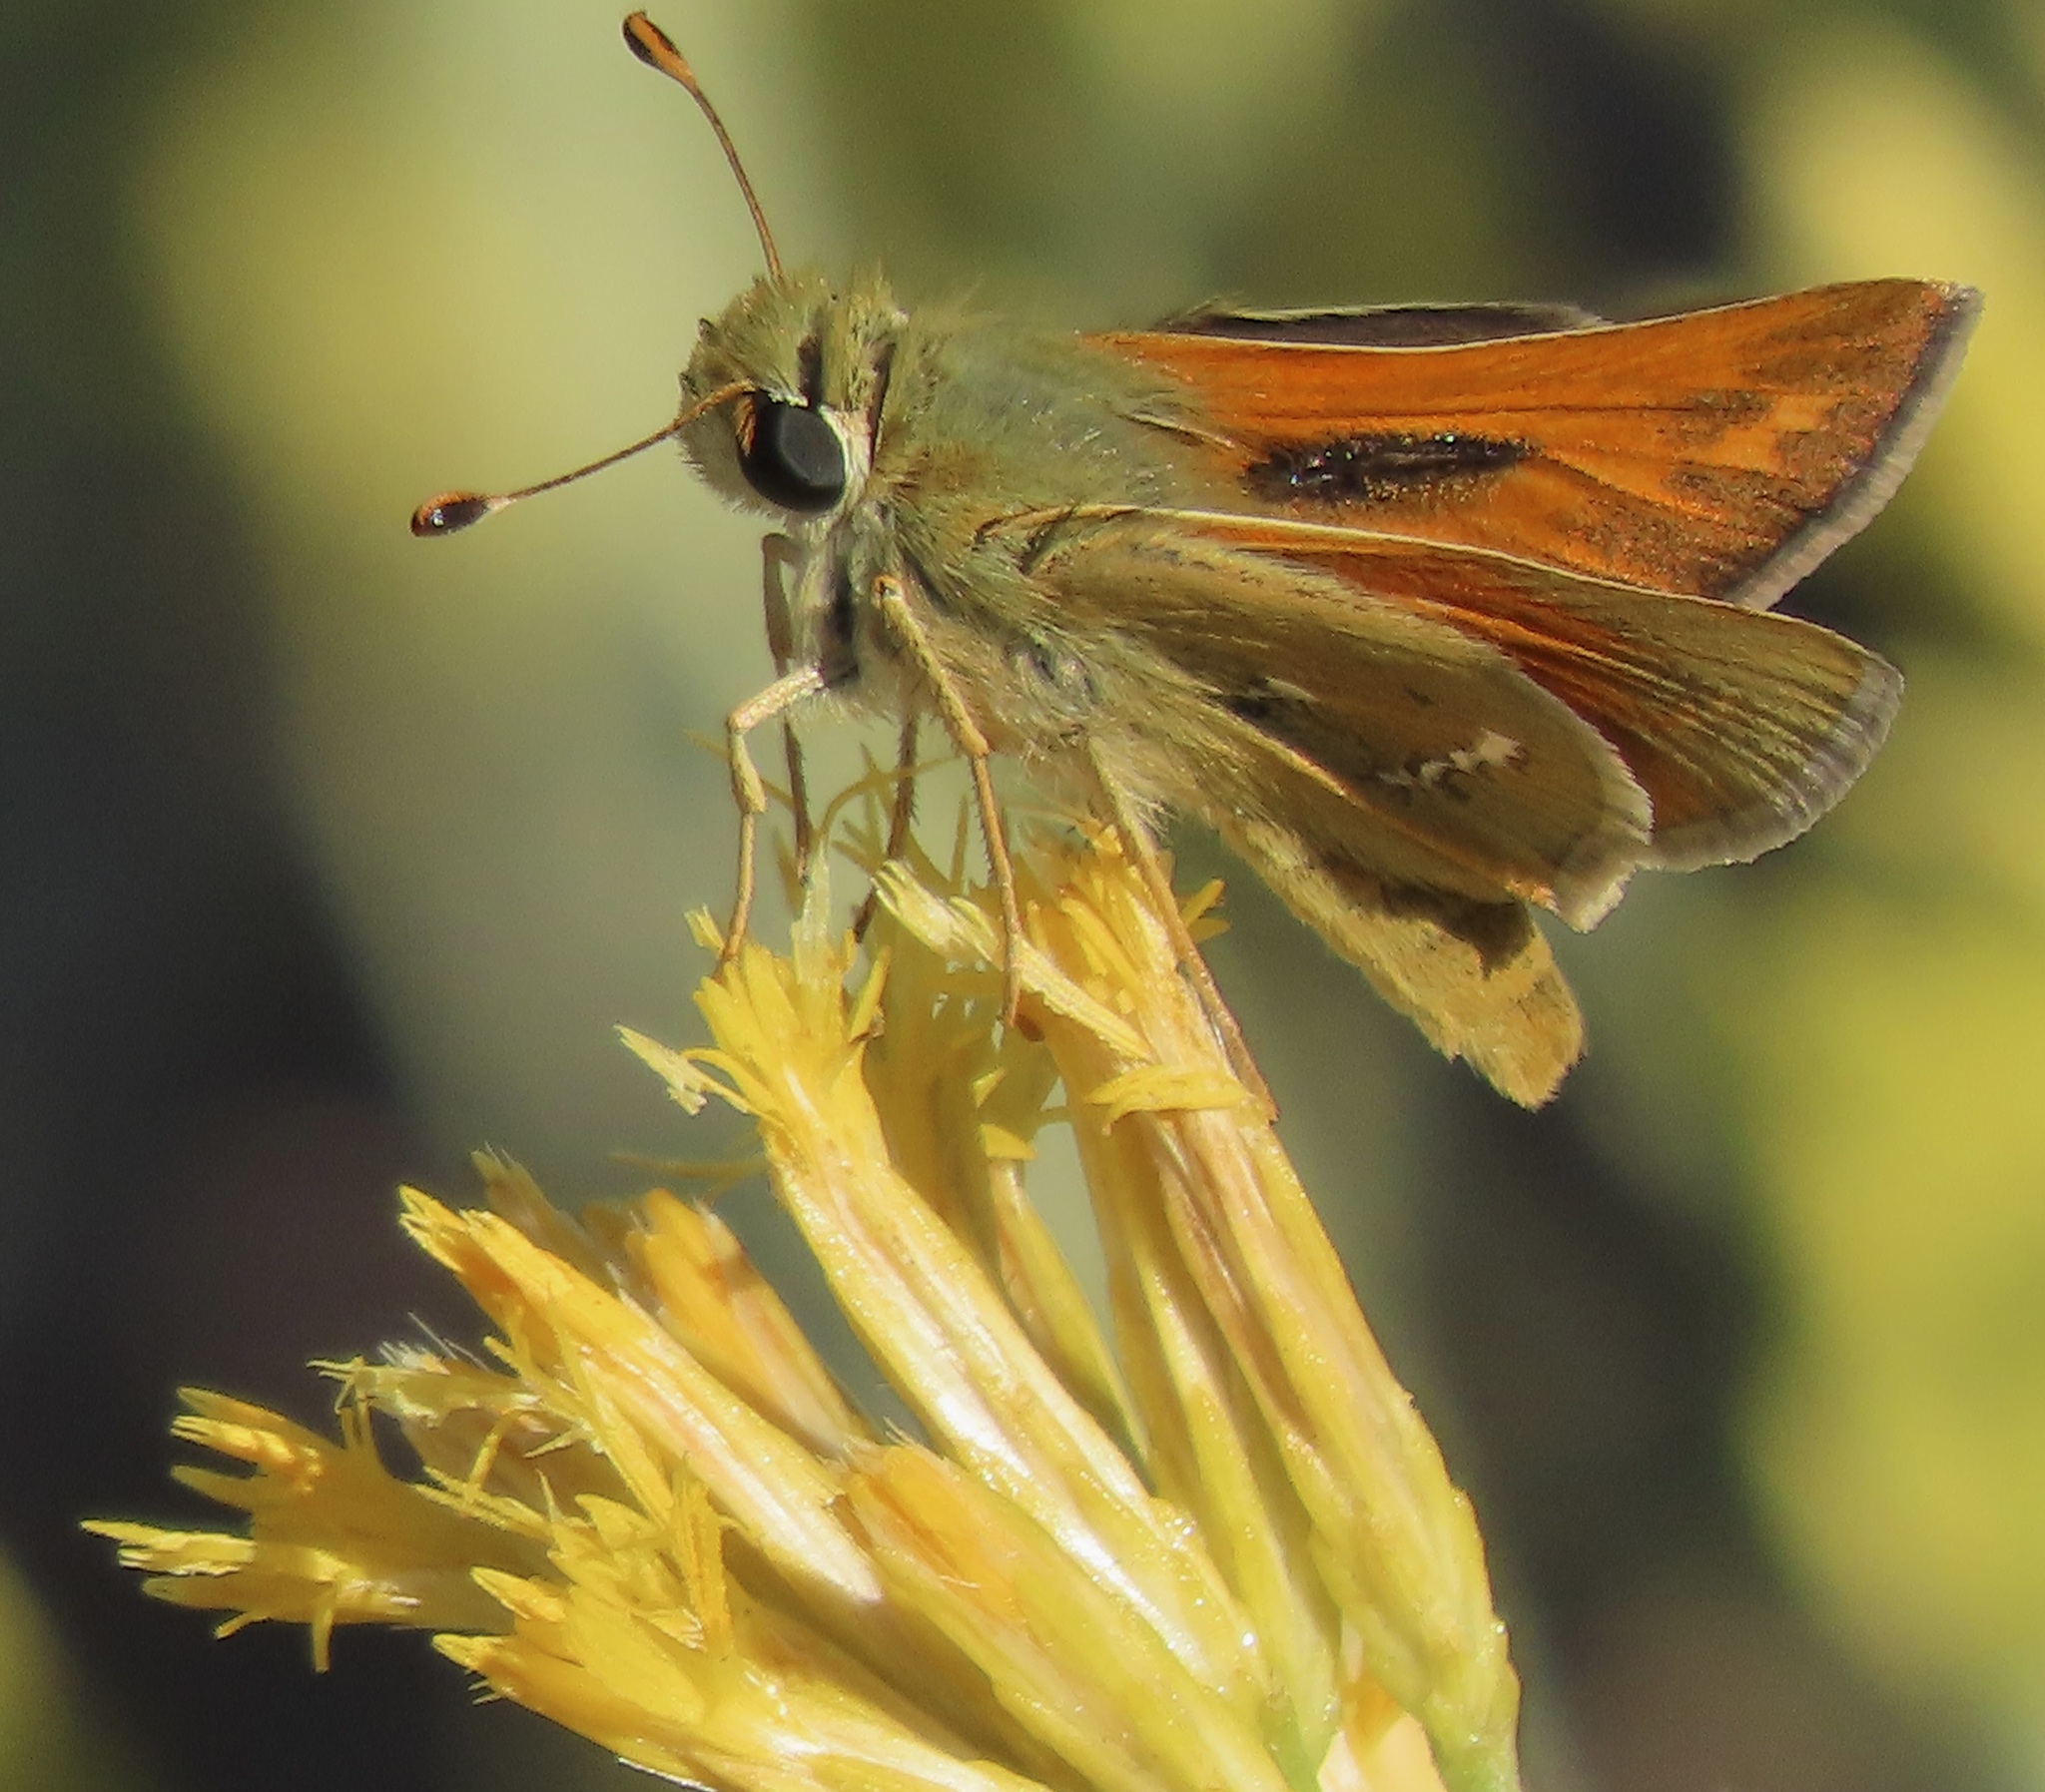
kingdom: Animalia
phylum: Arthropoda
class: Insecta
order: Lepidoptera
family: Hesperiidae
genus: Hesperia
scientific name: Hesperia columbia
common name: Columbian skipper
